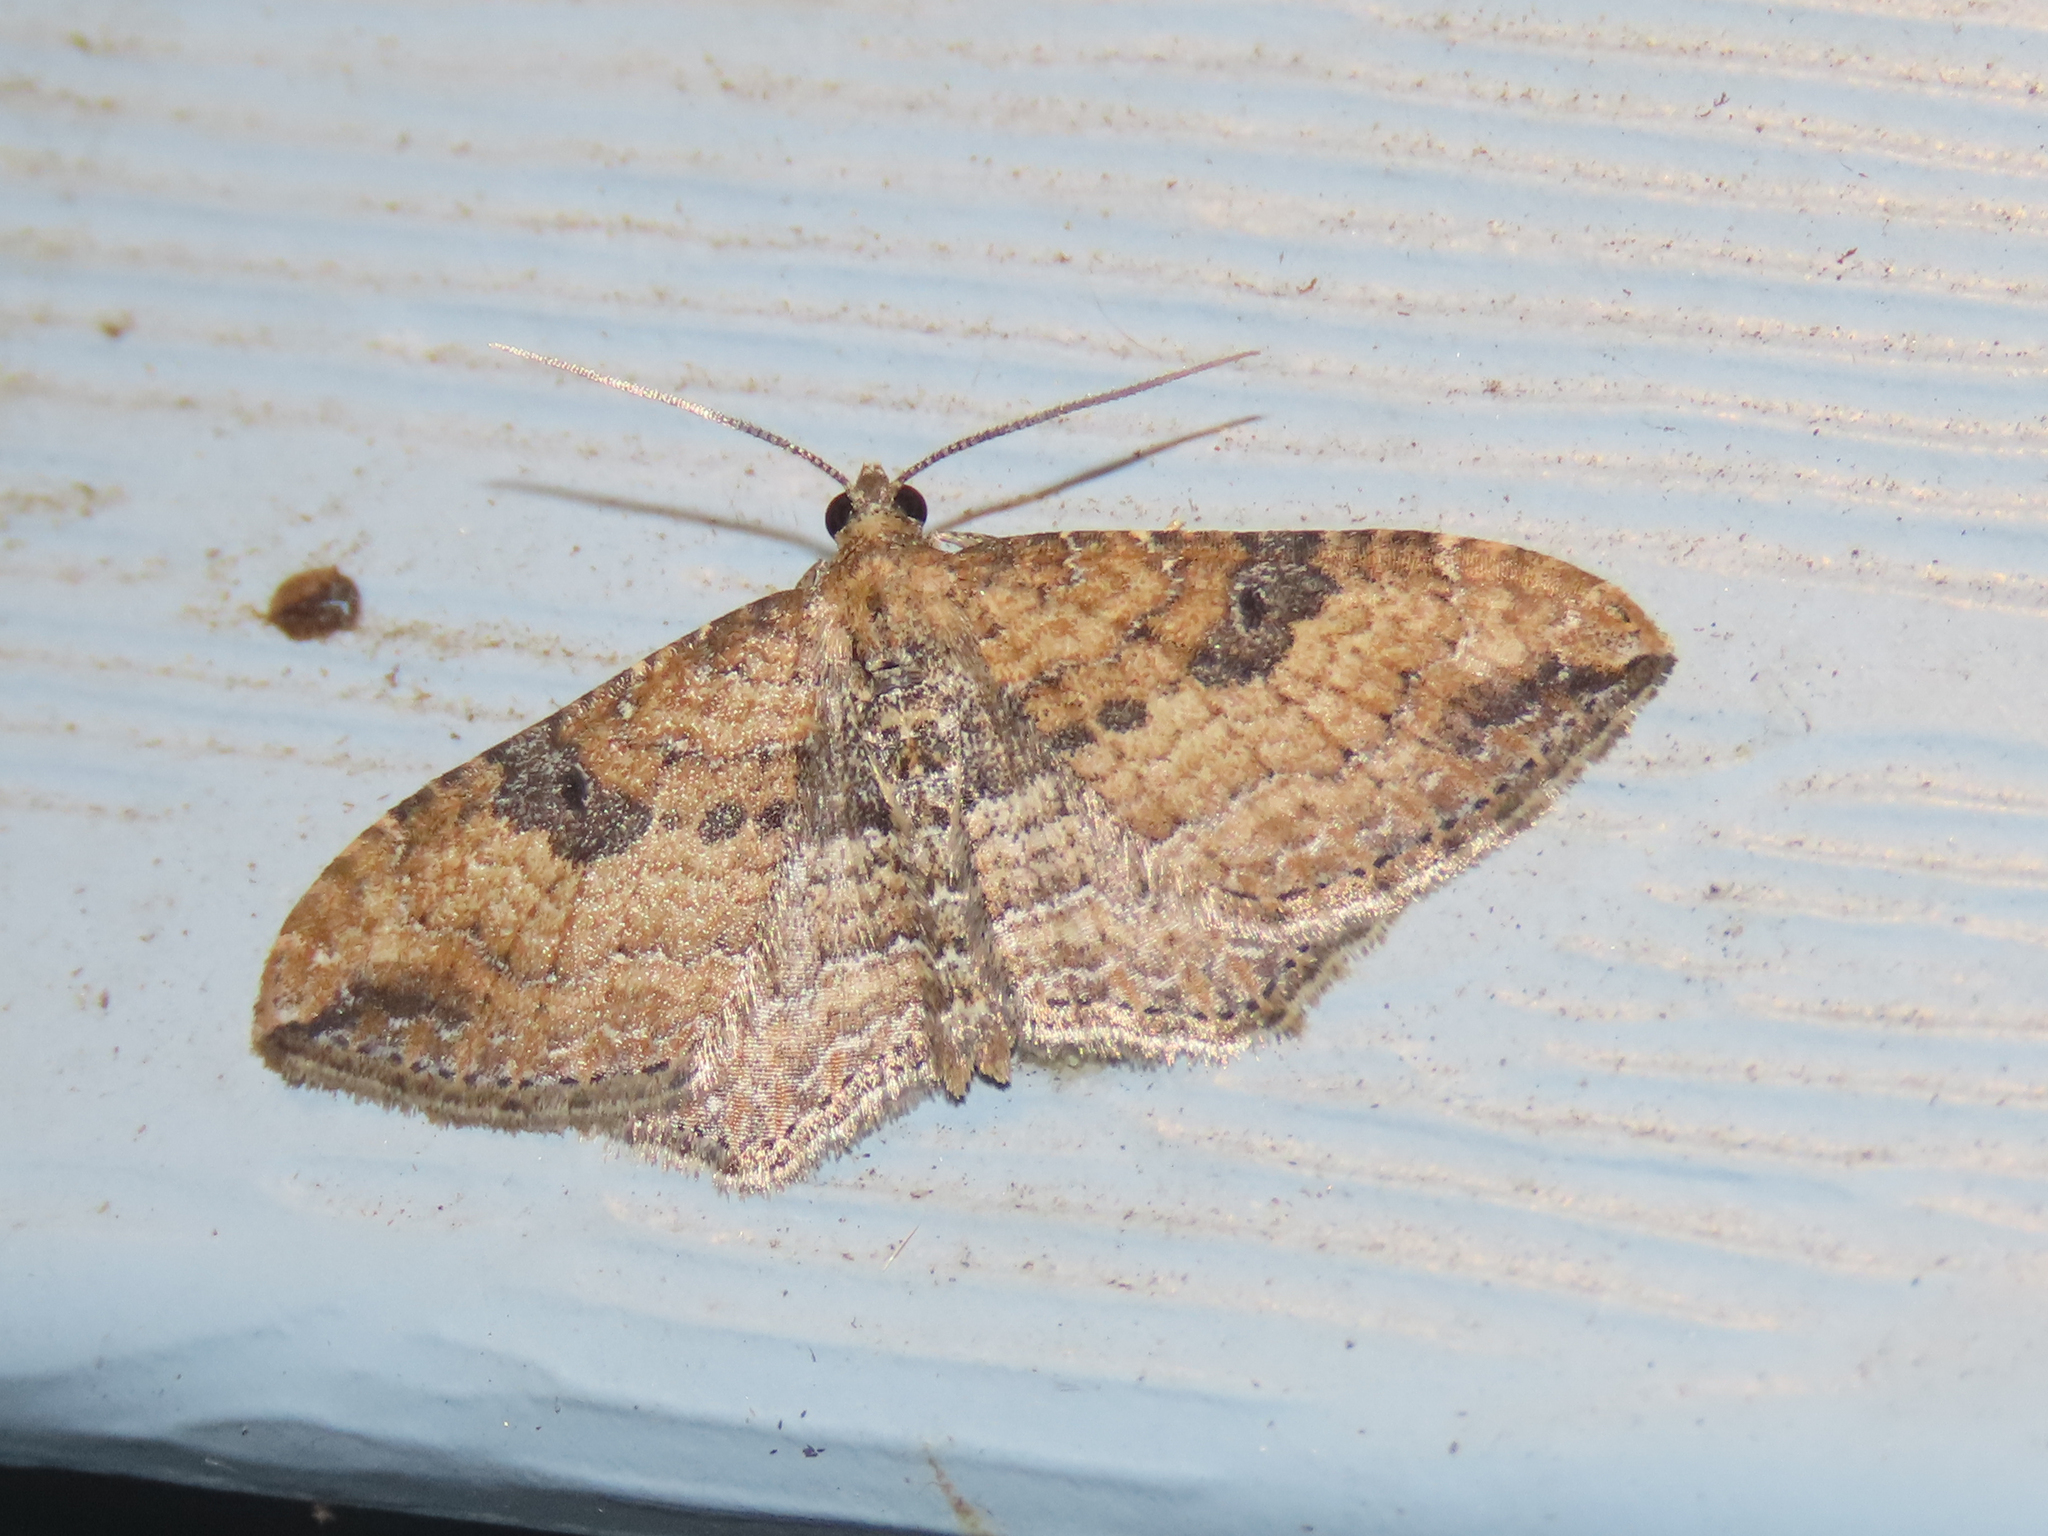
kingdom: Animalia
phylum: Arthropoda
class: Insecta
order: Lepidoptera
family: Geometridae
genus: Orthonama
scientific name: Orthonama obstipata
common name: The gem
